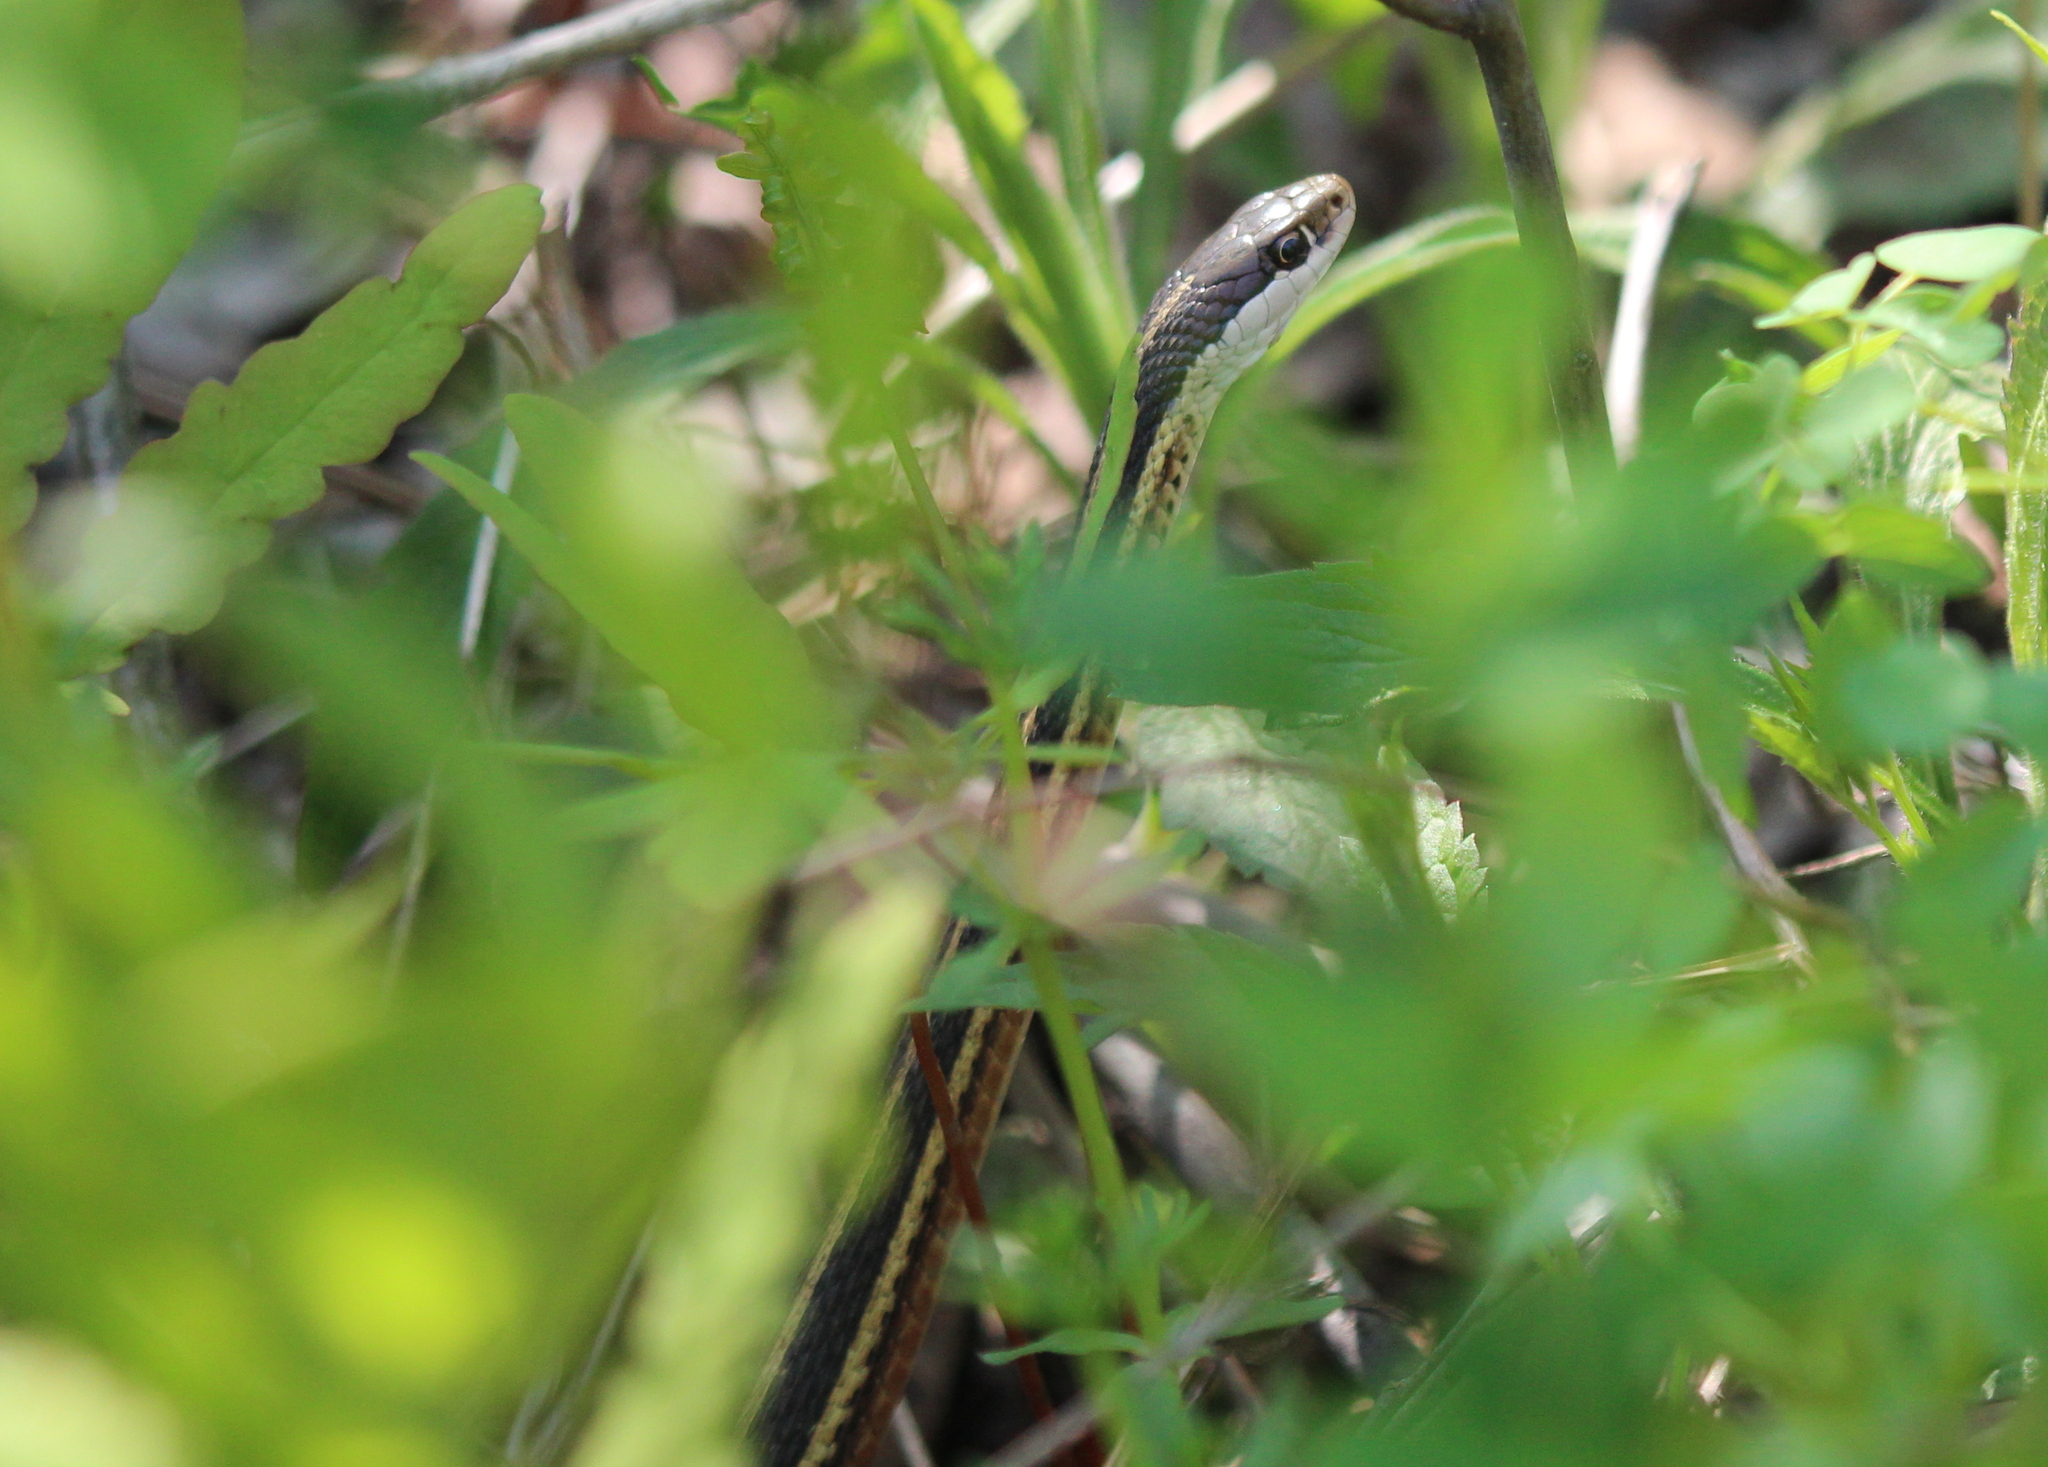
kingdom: Animalia
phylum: Chordata
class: Squamata
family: Colubridae
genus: Thamnophis
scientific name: Thamnophis saurita
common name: Eastern ribbonsnake
